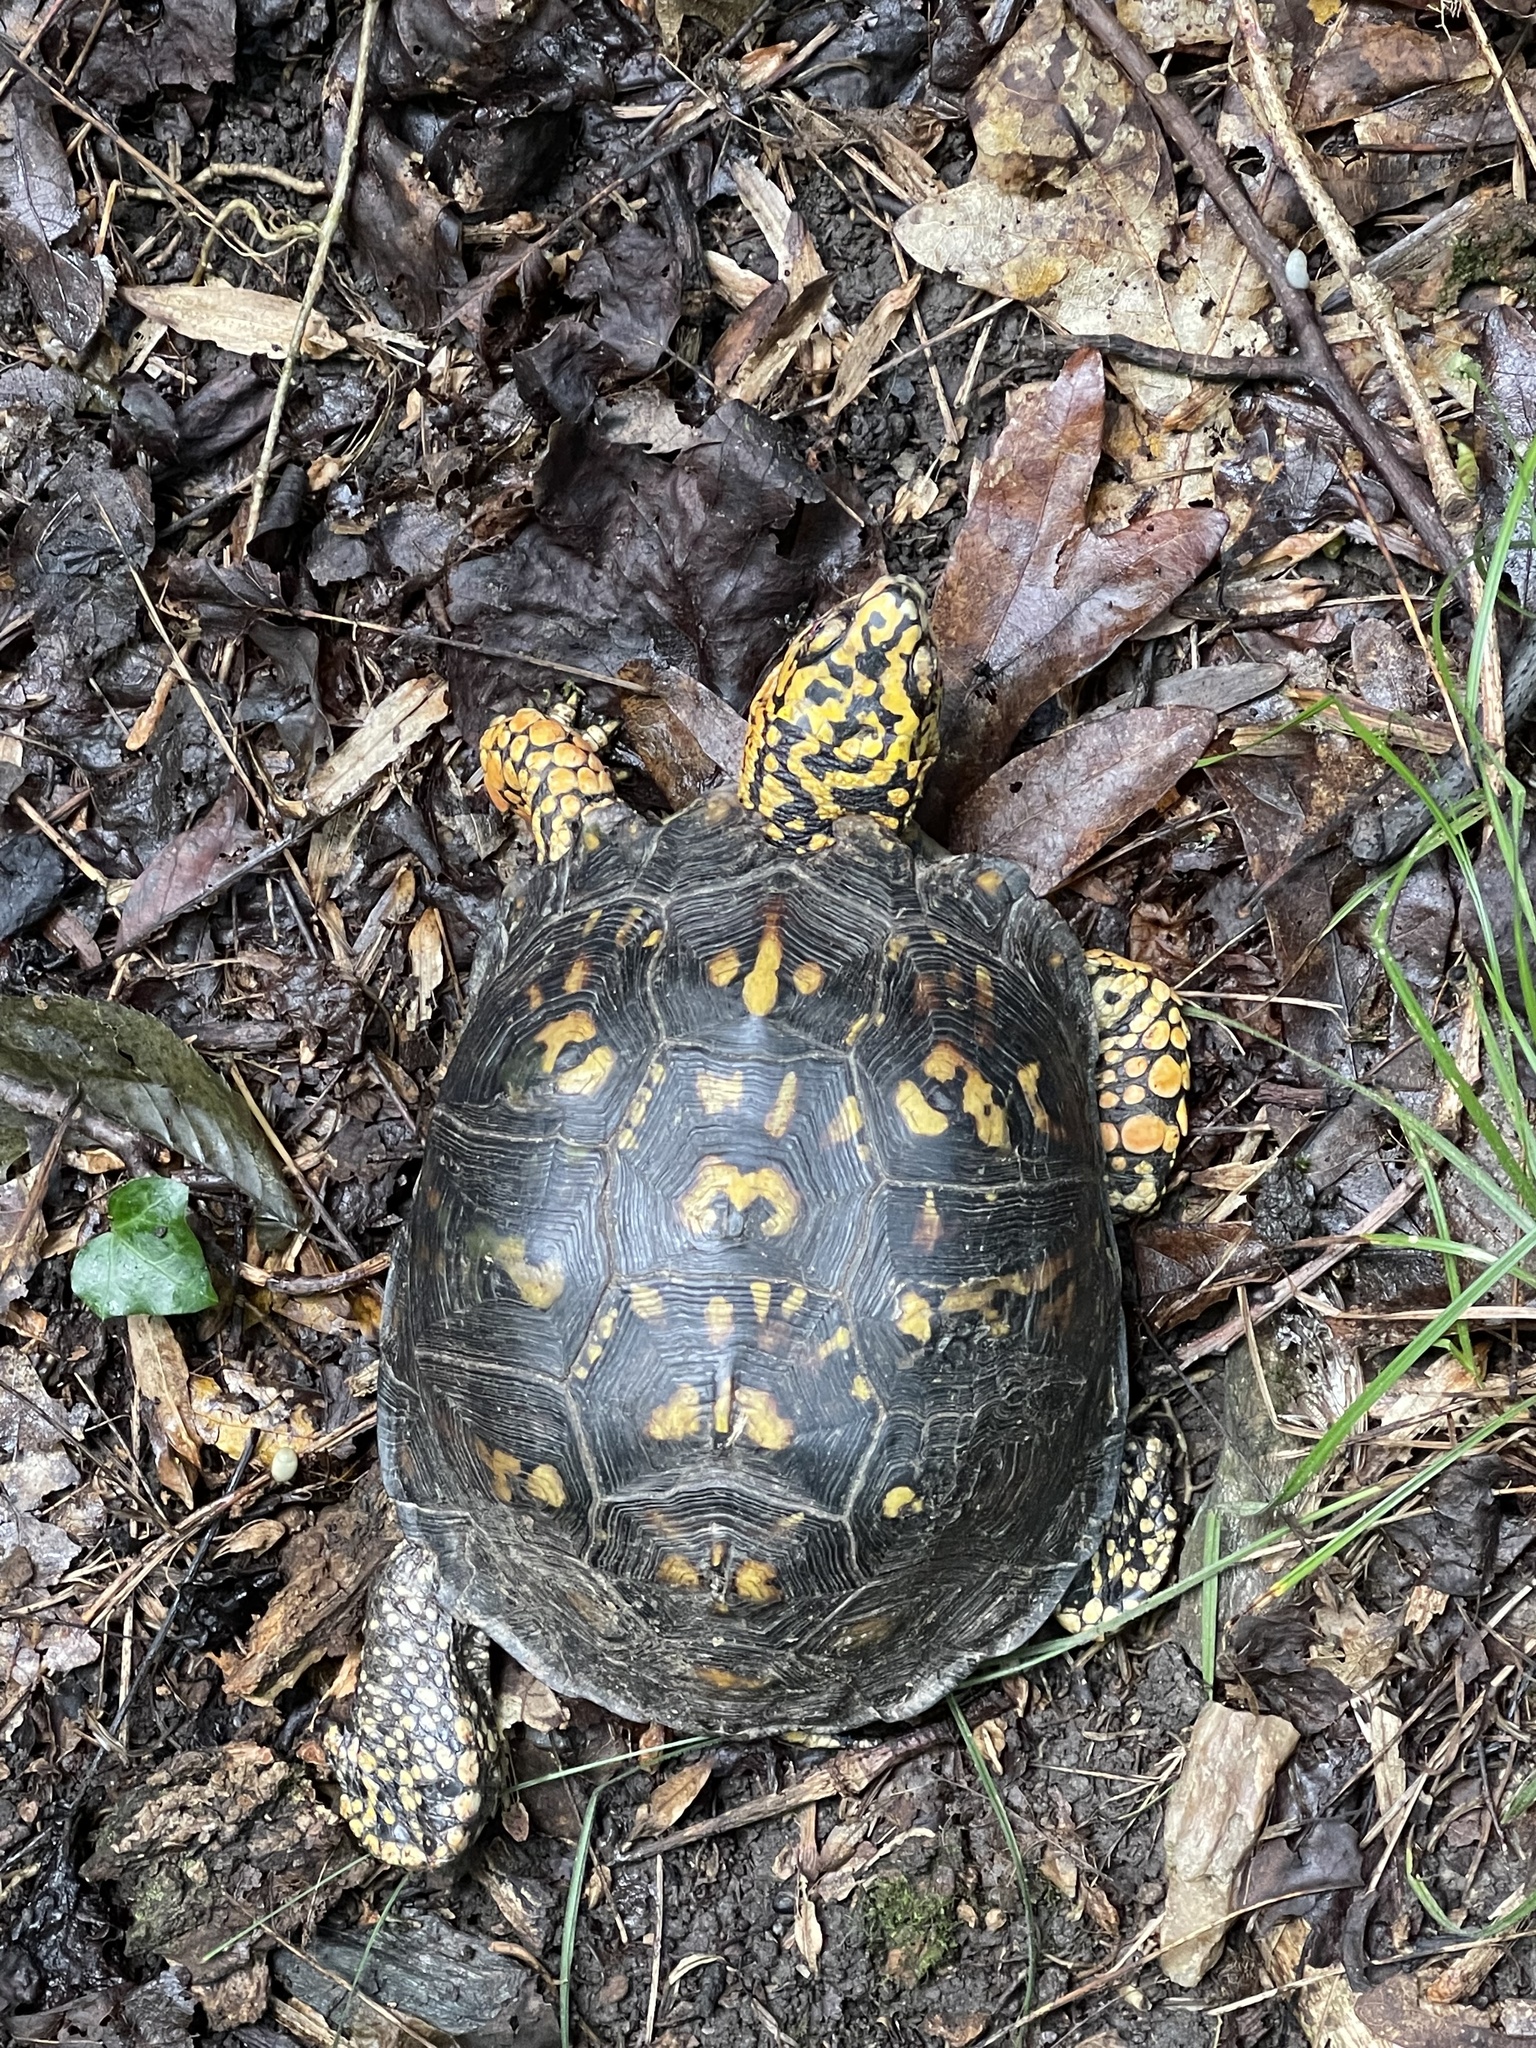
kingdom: Animalia
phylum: Chordata
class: Testudines
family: Emydidae
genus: Terrapene
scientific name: Terrapene carolina
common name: Common box turtle
